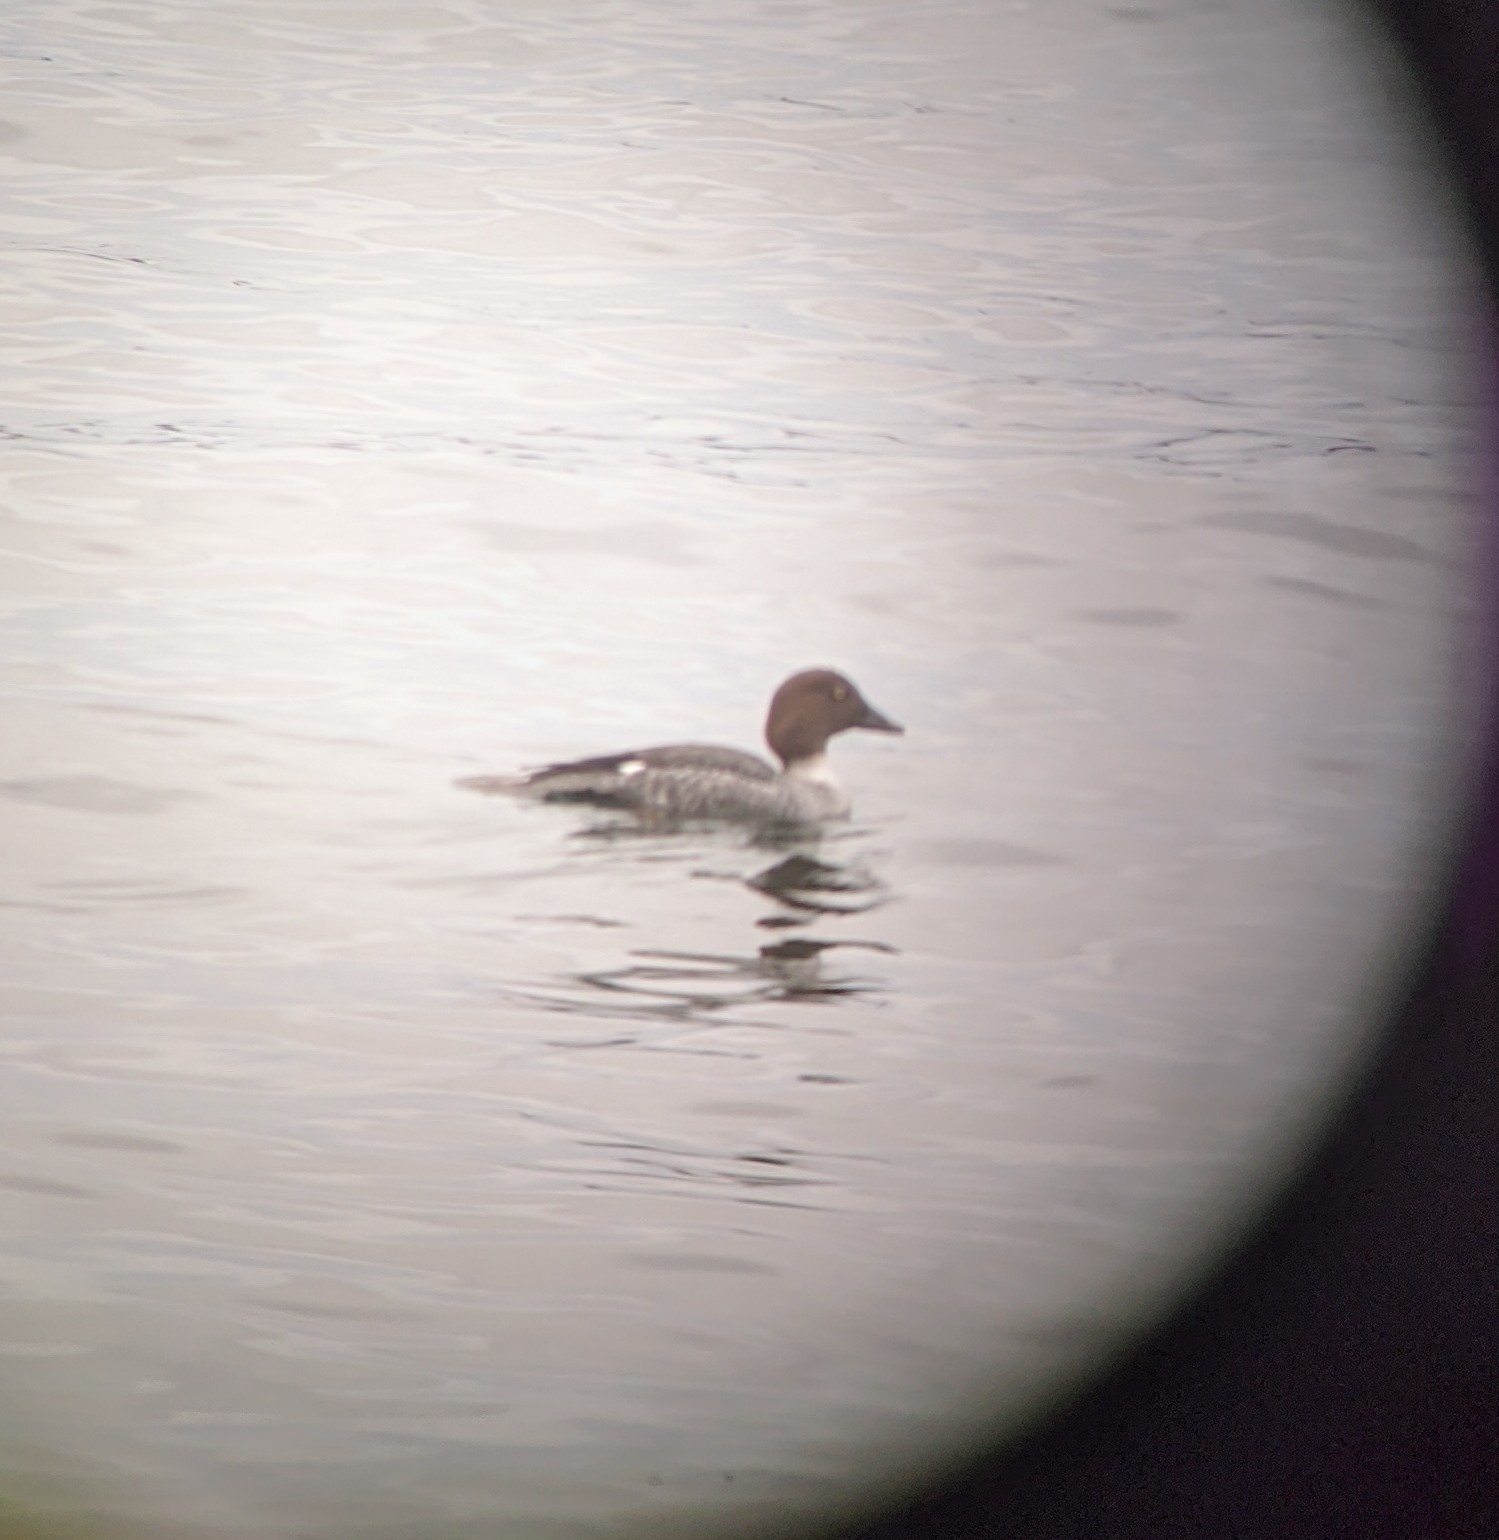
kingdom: Animalia
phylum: Chordata
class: Aves
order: Anseriformes
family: Anatidae
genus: Bucephala
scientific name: Bucephala clangula
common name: Common goldeneye
